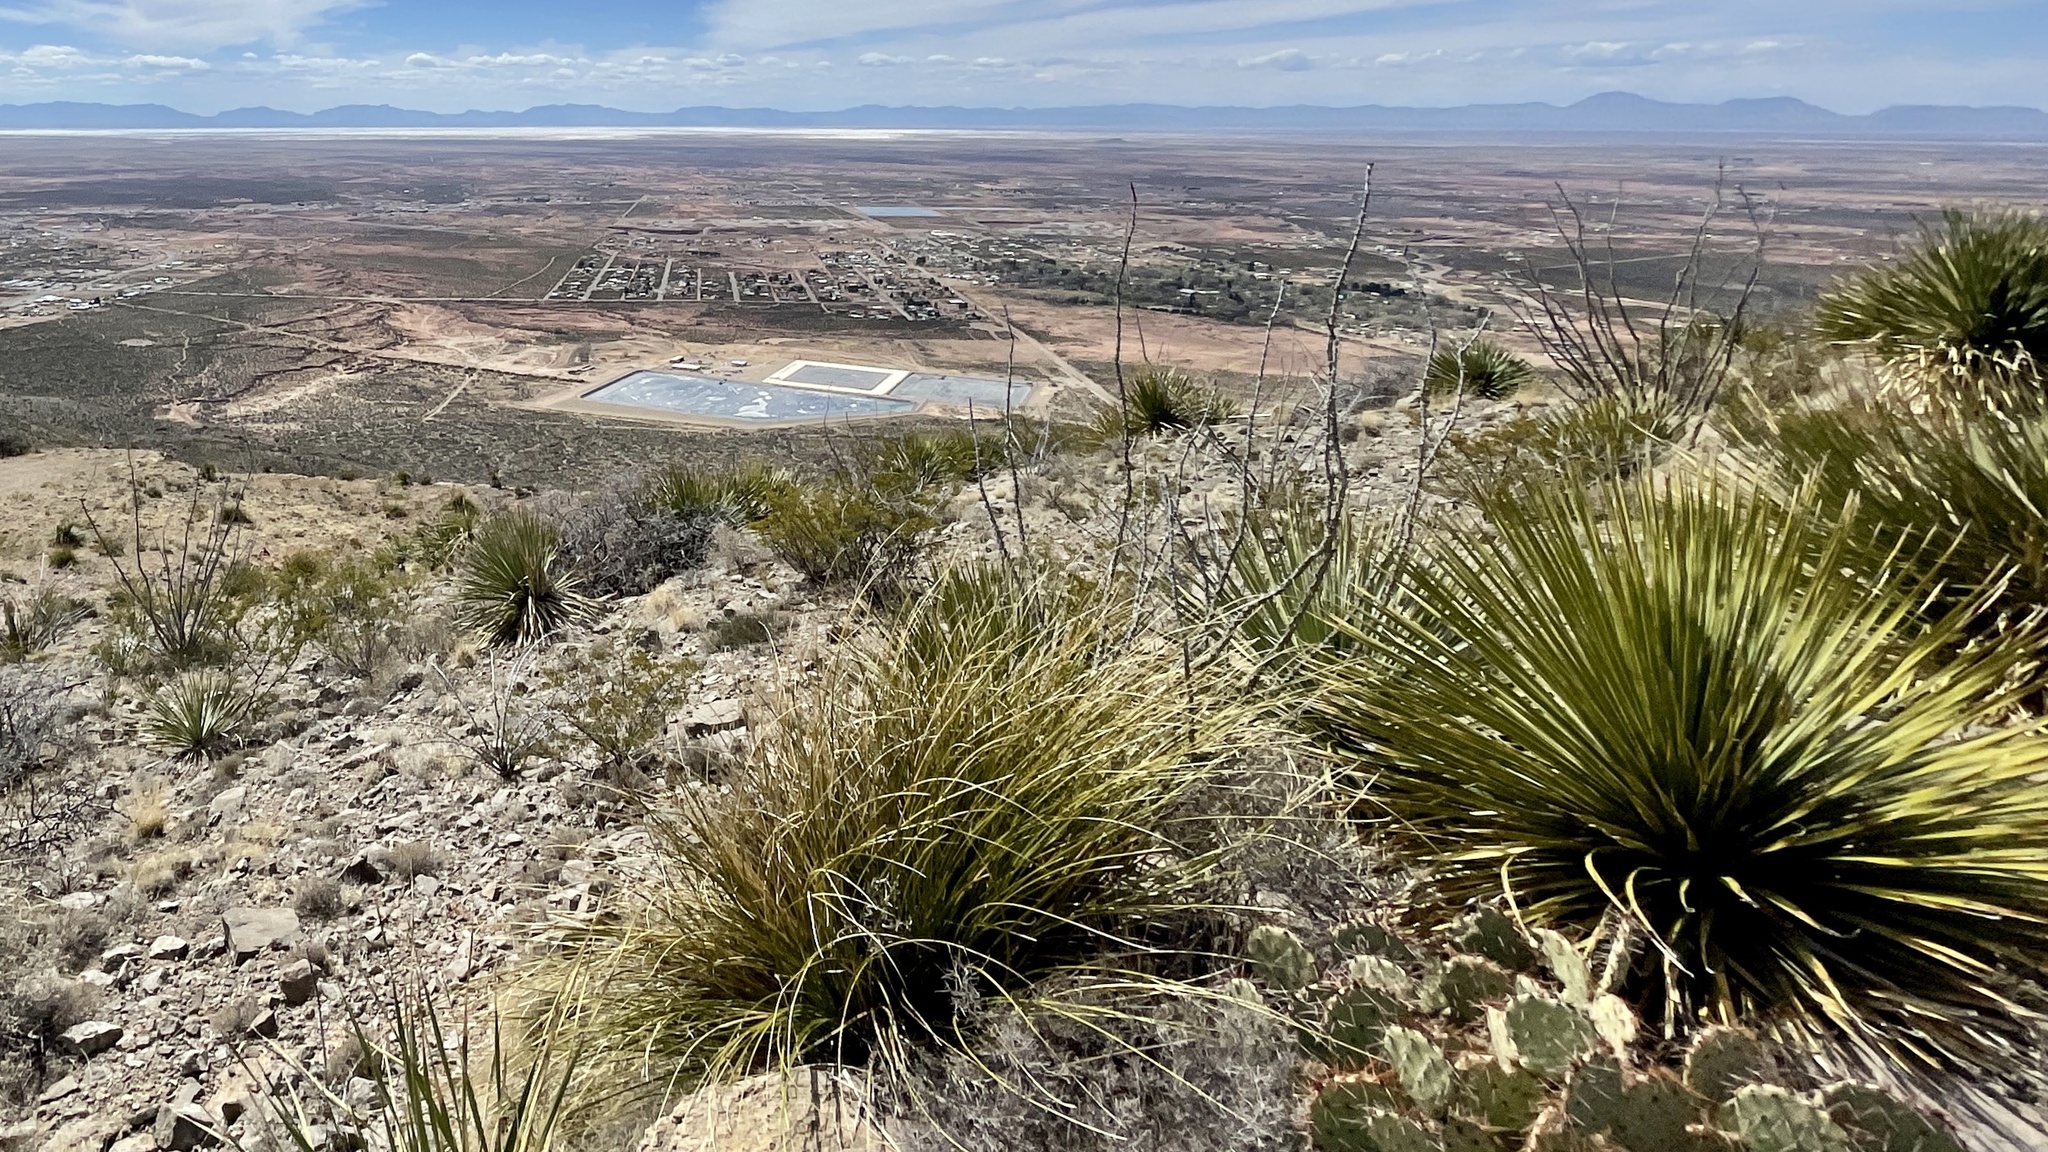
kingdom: Plantae
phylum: Tracheophyta
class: Liliopsida
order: Asparagales
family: Asparagaceae
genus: Dasylirion
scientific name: Dasylirion wheeleri
